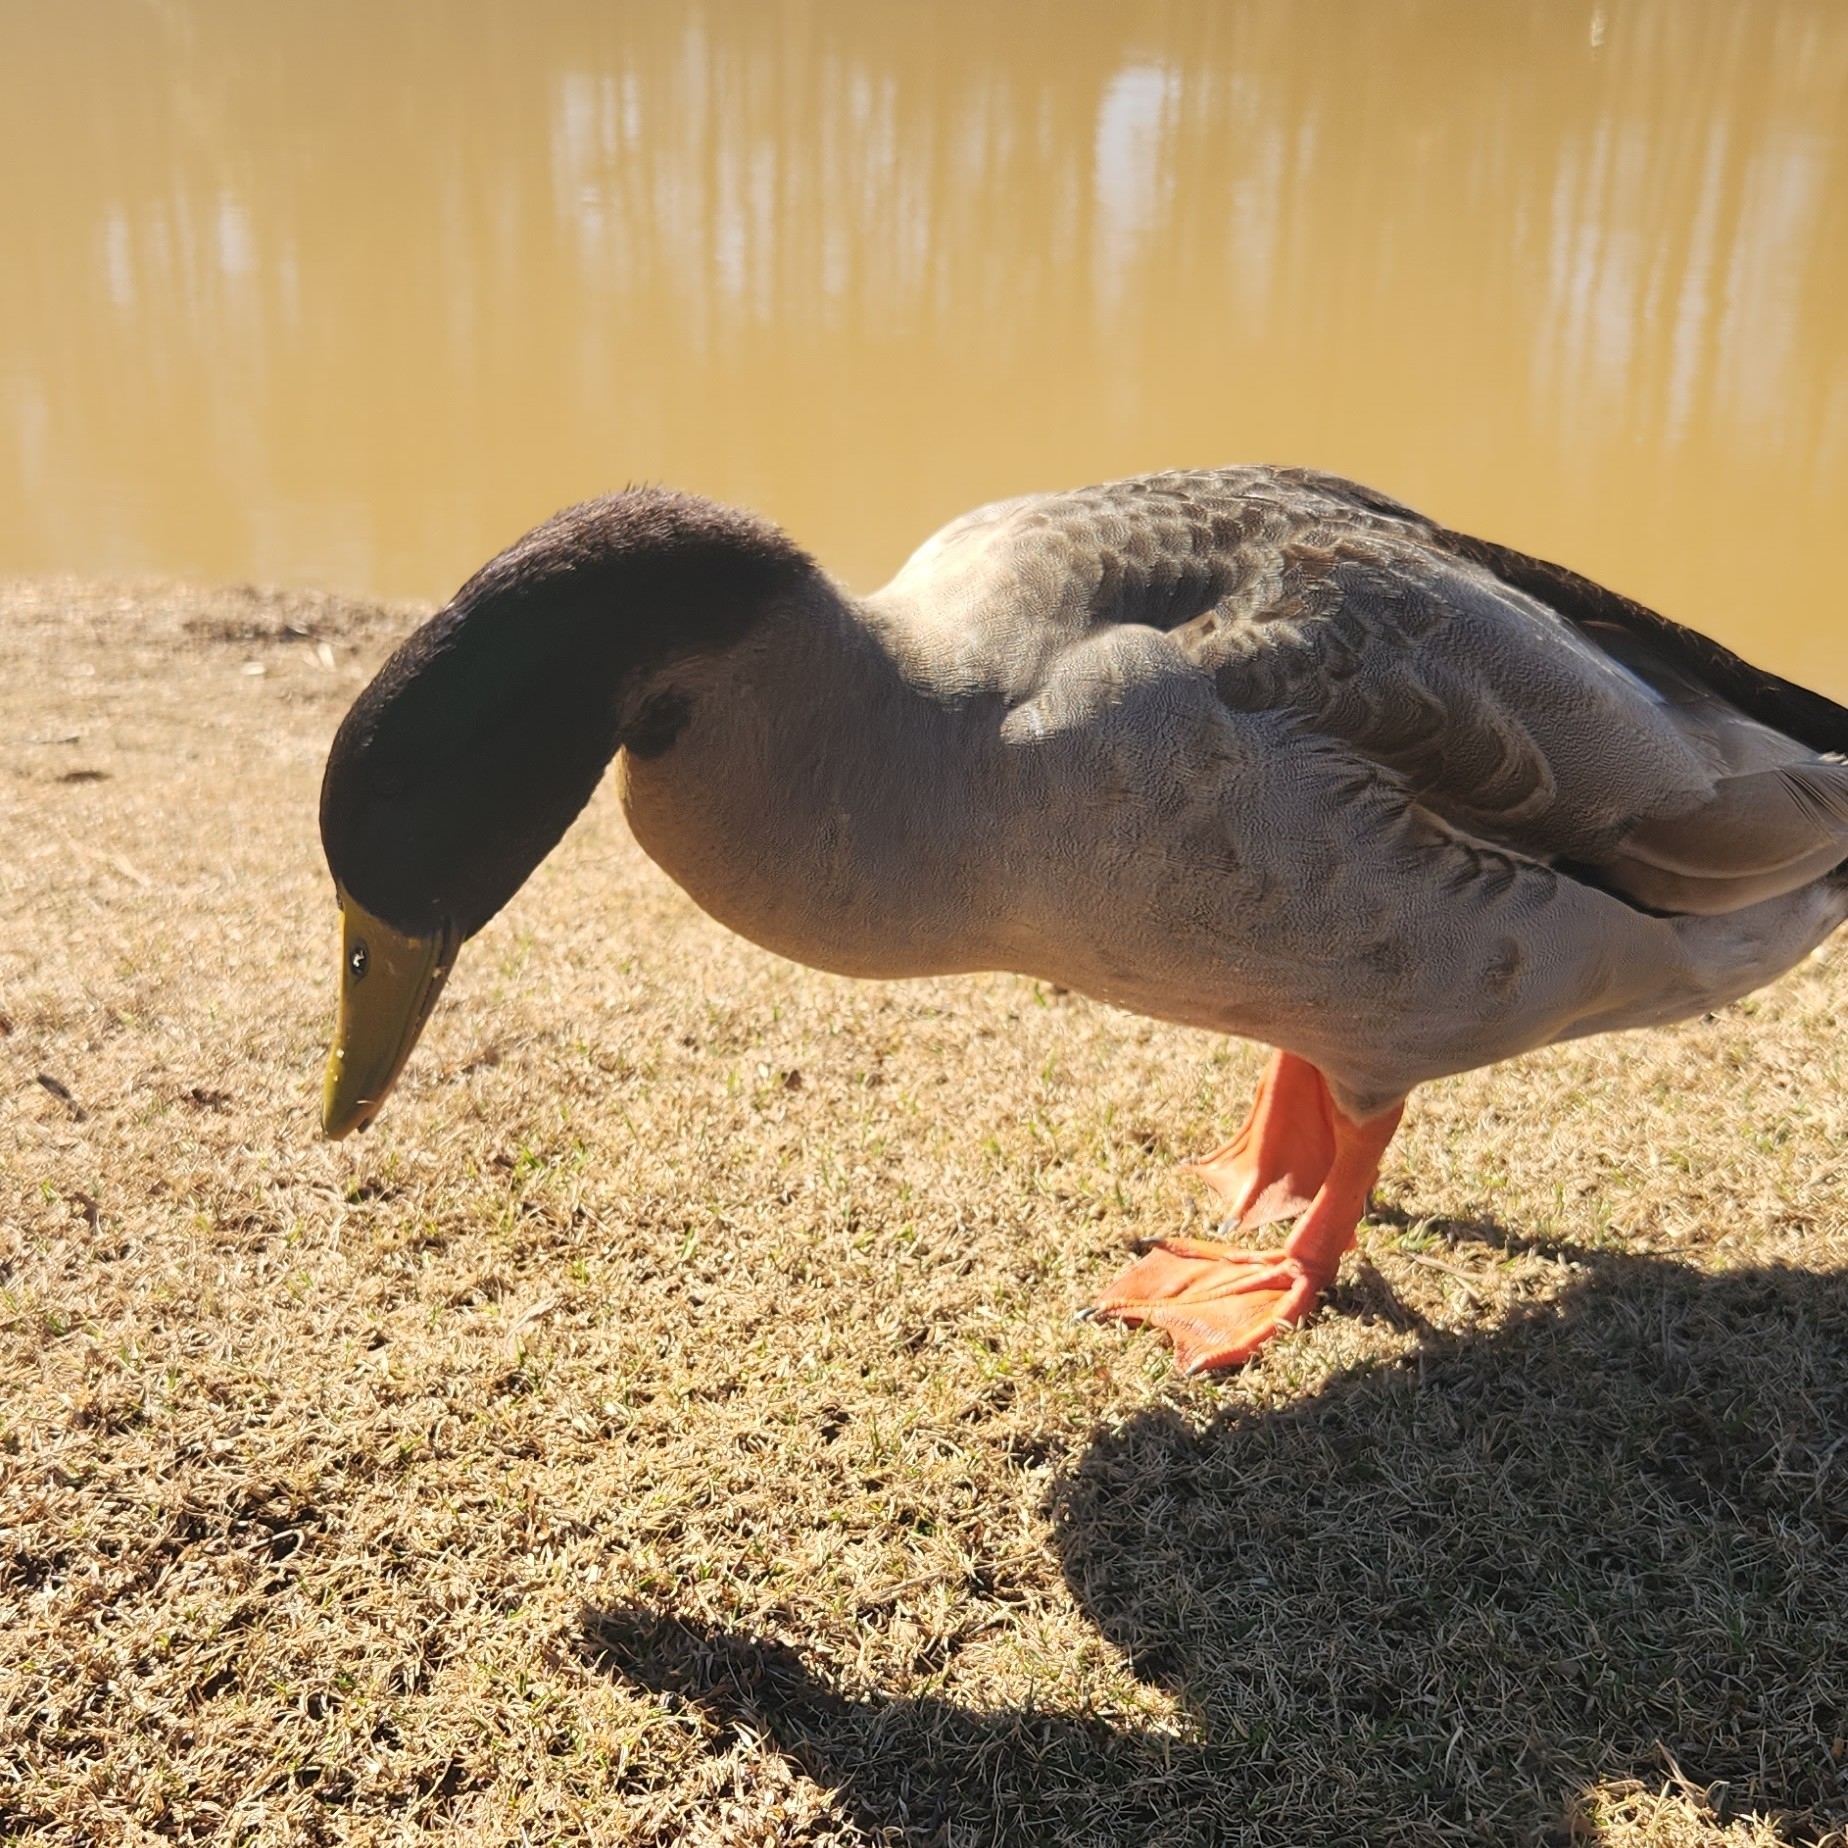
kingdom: Animalia
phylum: Chordata
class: Aves
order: Anseriformes
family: Anatidae
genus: Anas
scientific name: Anas platyrhynchos
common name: Mallard
